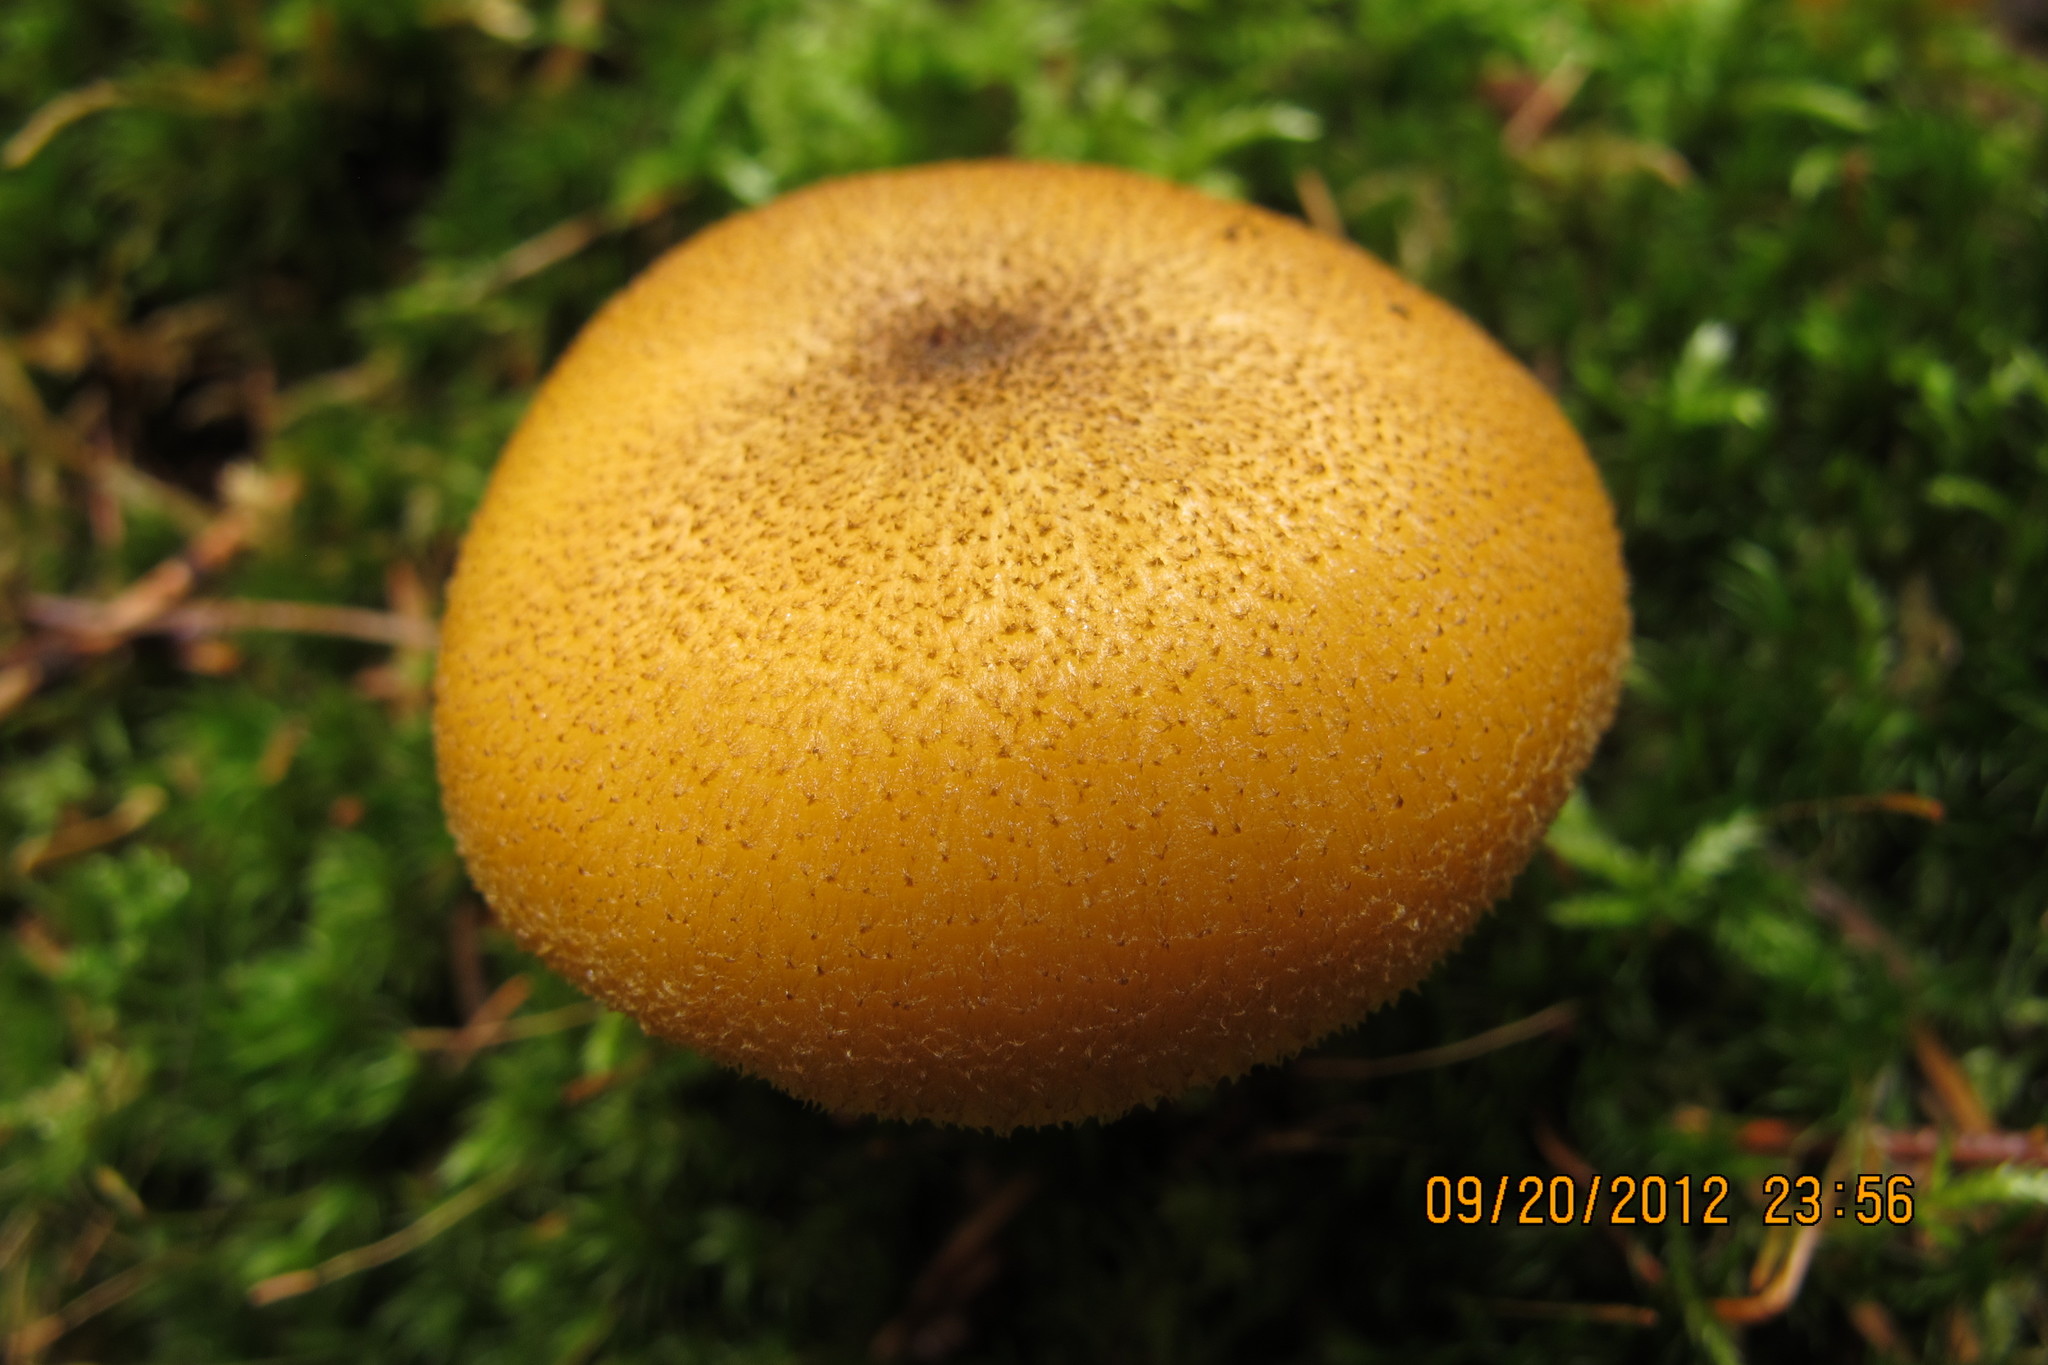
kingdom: Fungi
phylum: Basidiomycota
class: Agaricomycetes
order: Agaricales
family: Tricholomataceae
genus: Tricholomopsis
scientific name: Tricholomopsis decora
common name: Prunes and custard
